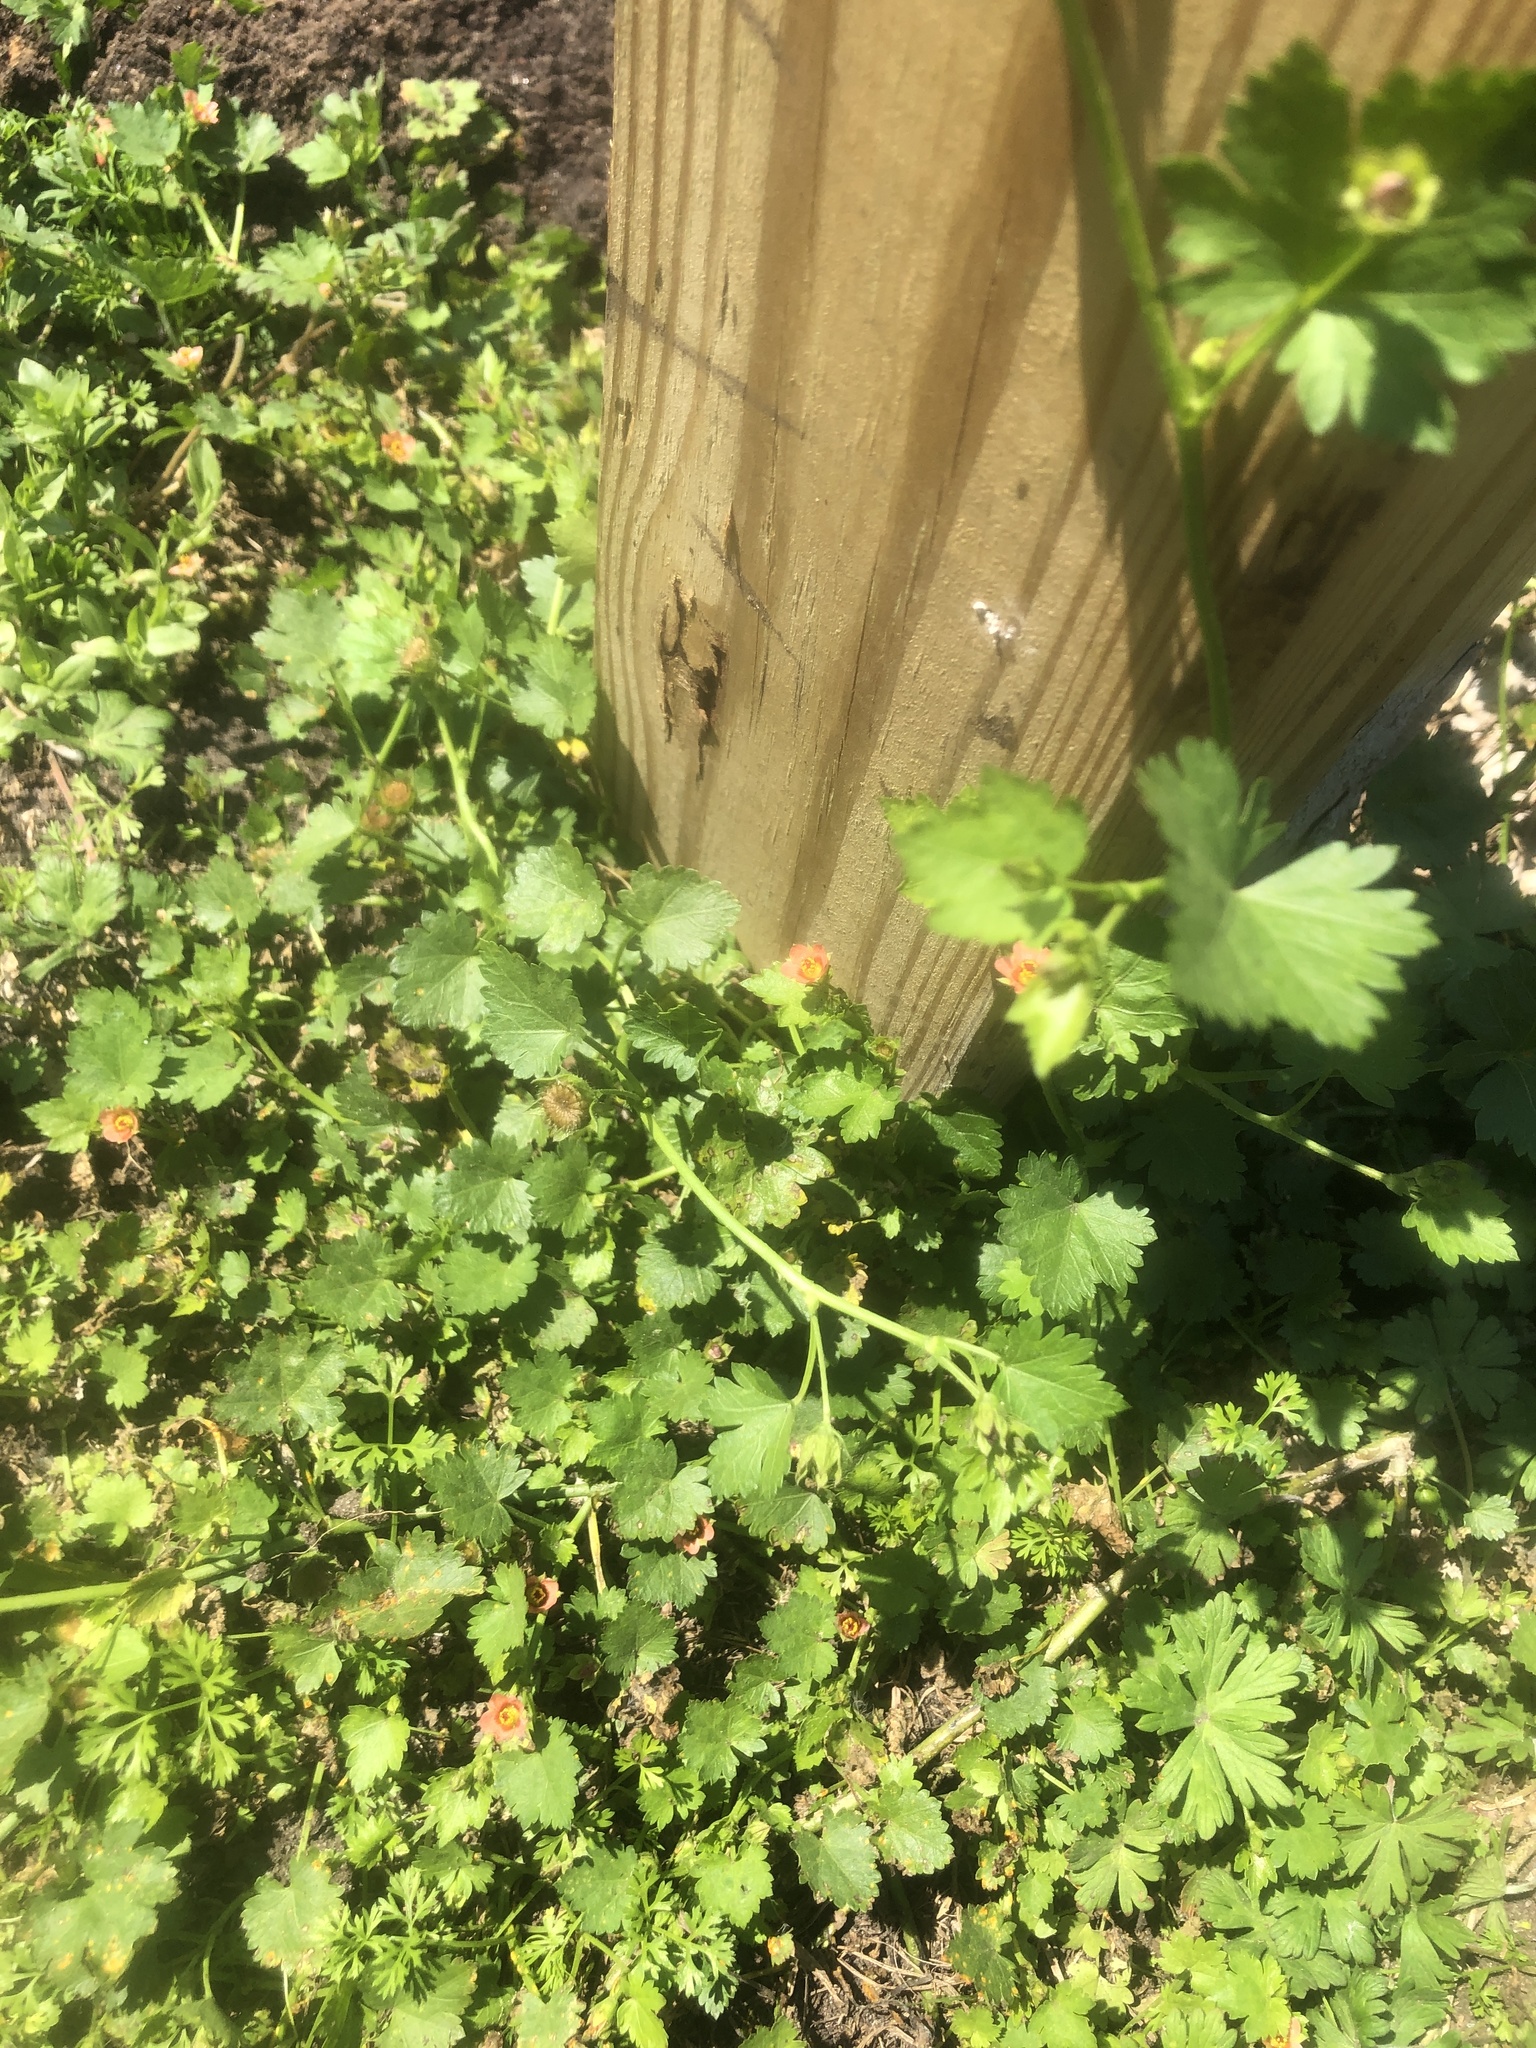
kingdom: Plantae
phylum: Tracheophyta
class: Magnoliopsida
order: Malvales
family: Malvaceae
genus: Modiola
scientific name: Modiola caroliniana
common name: Carolina bristlemallow
